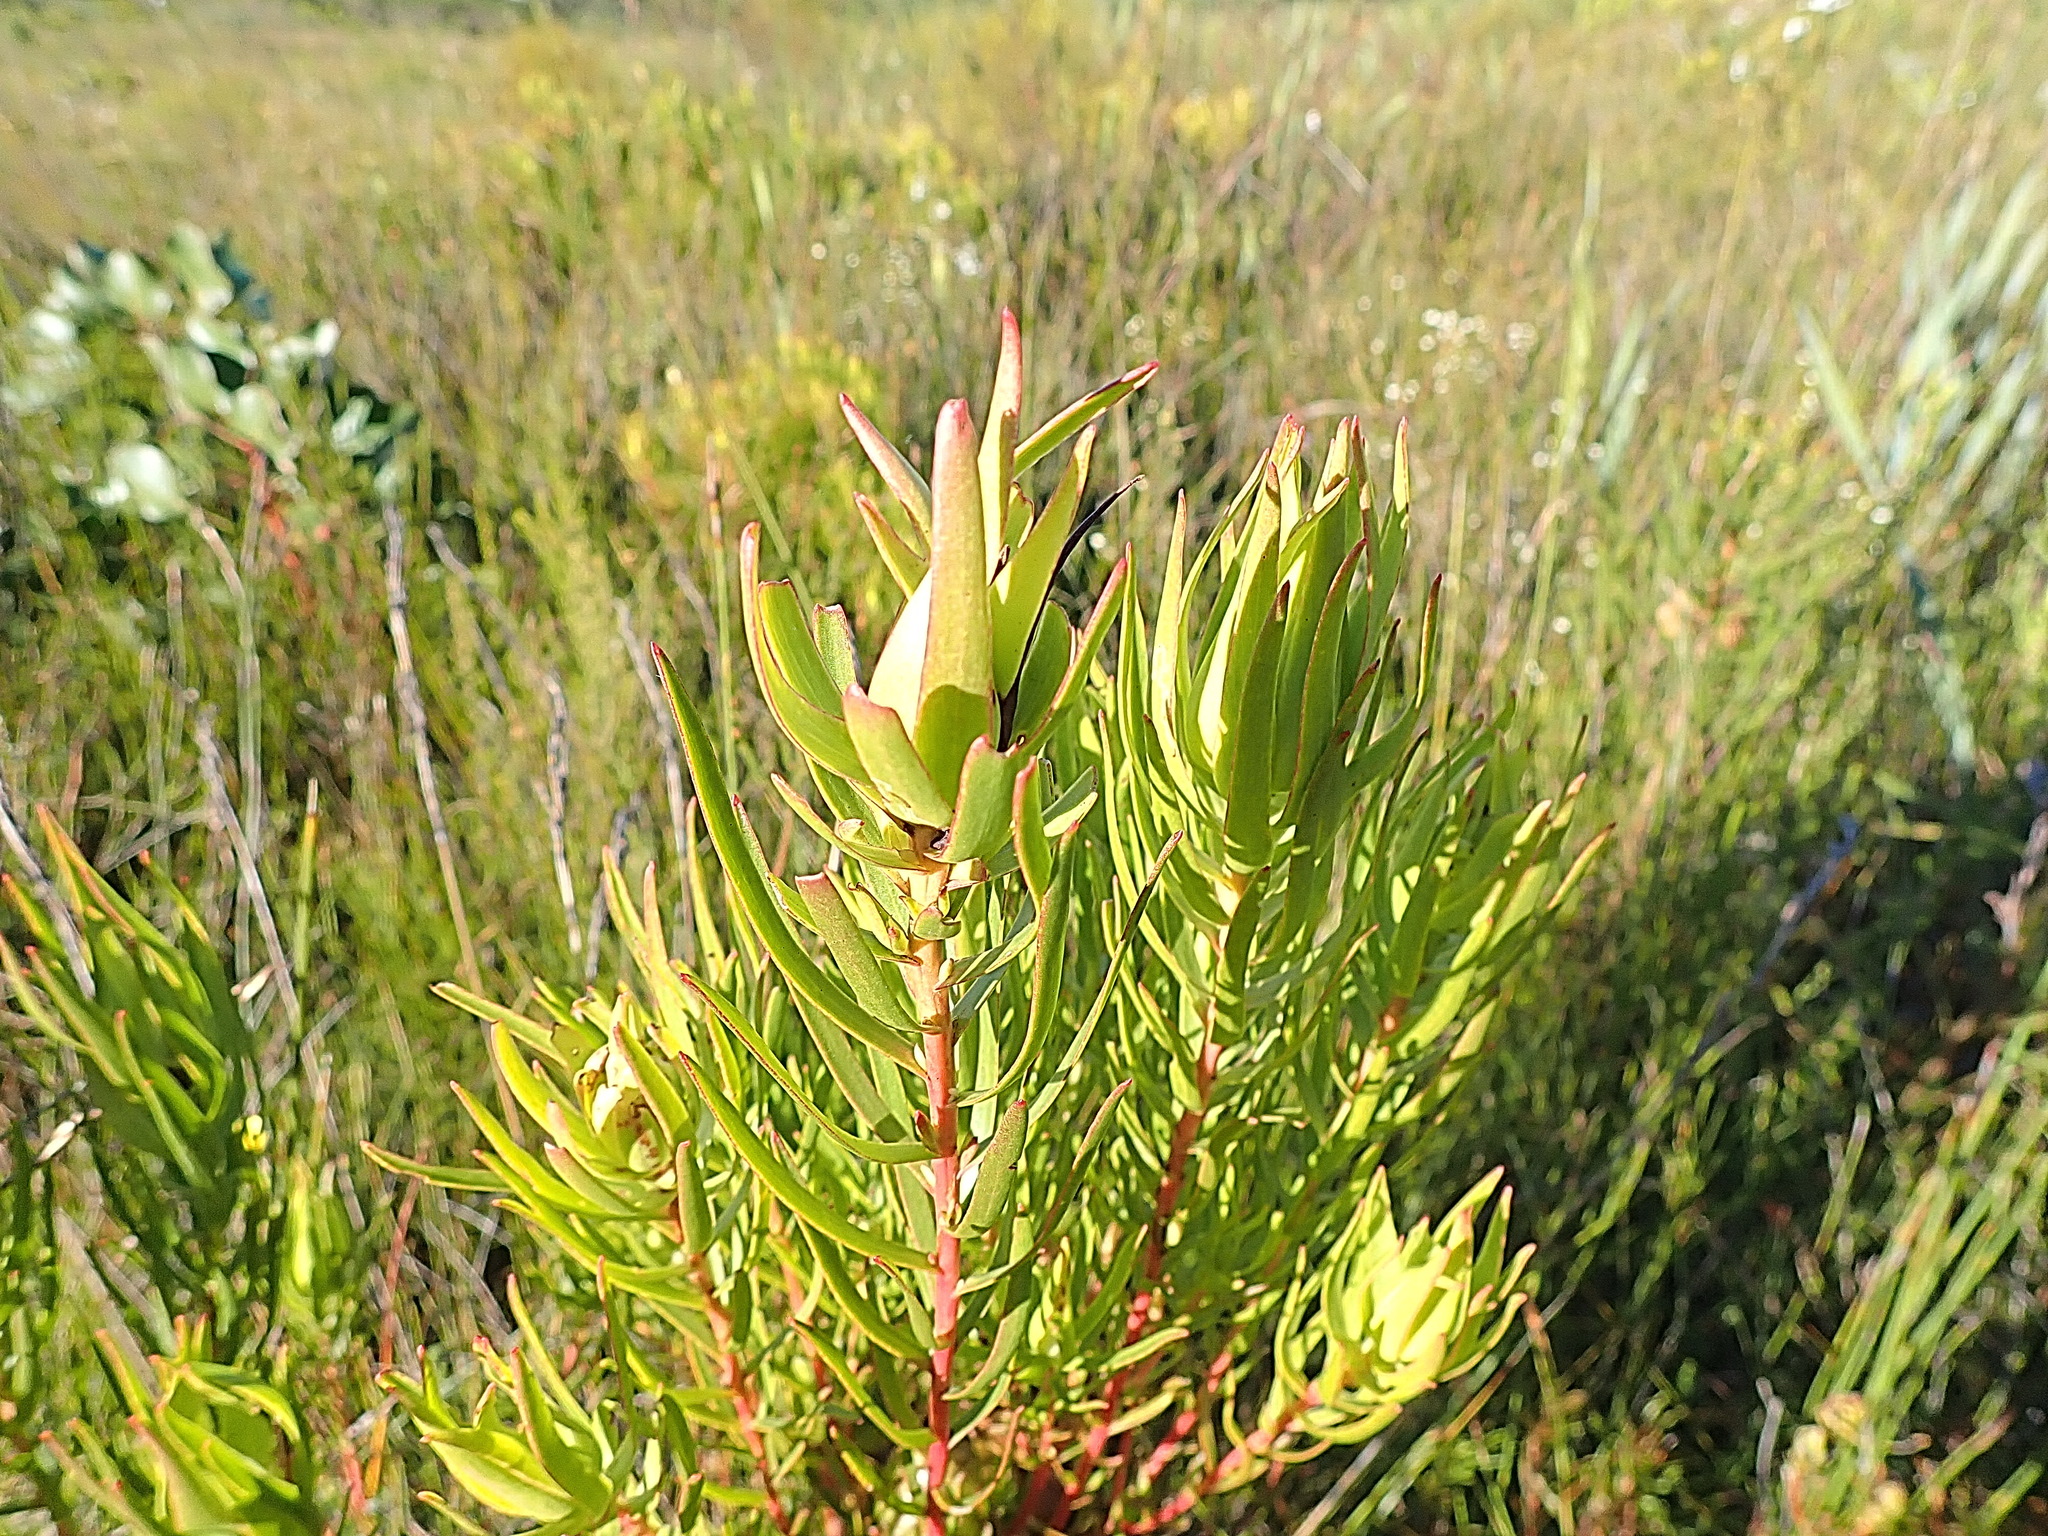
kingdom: Plantae
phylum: Tracheophyta
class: Magnoliopsida
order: Proteales
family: Proteaceae
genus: Leucadendron
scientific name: Leucadendron spissifolium
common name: Spear-leaf conebush
